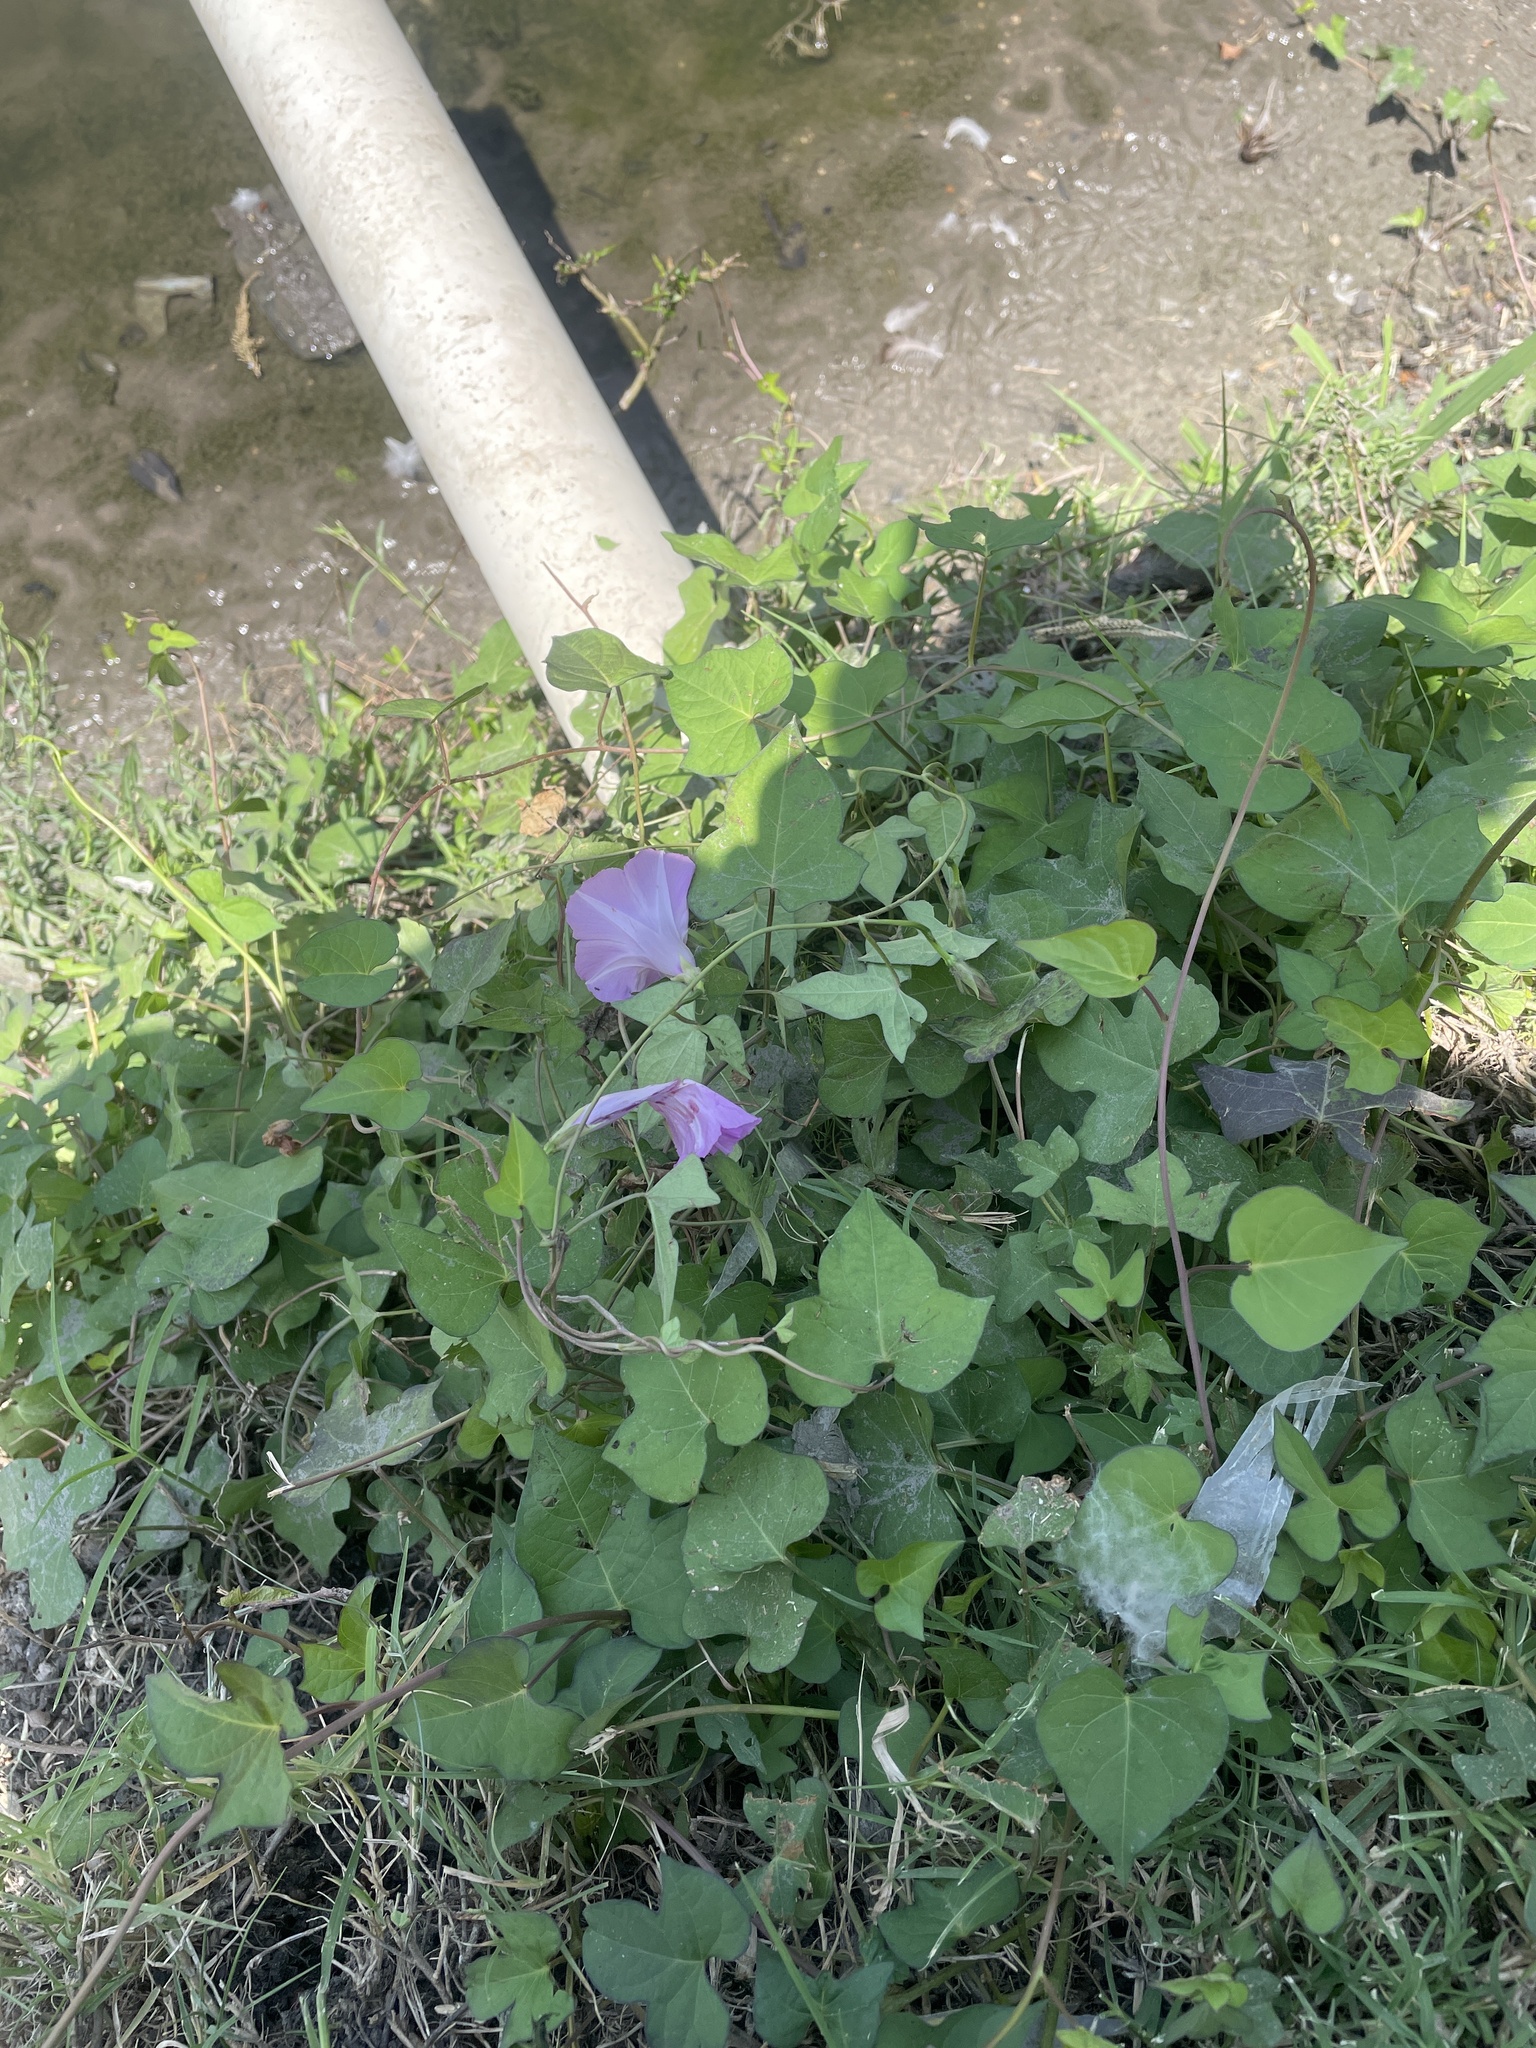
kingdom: Plantae
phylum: Tracheophyta
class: Magnoliopsida
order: Solanales
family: Convolvulaceae
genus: Ipomoea
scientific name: Ipomoea cordatotriloba
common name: Cotton morning glory
